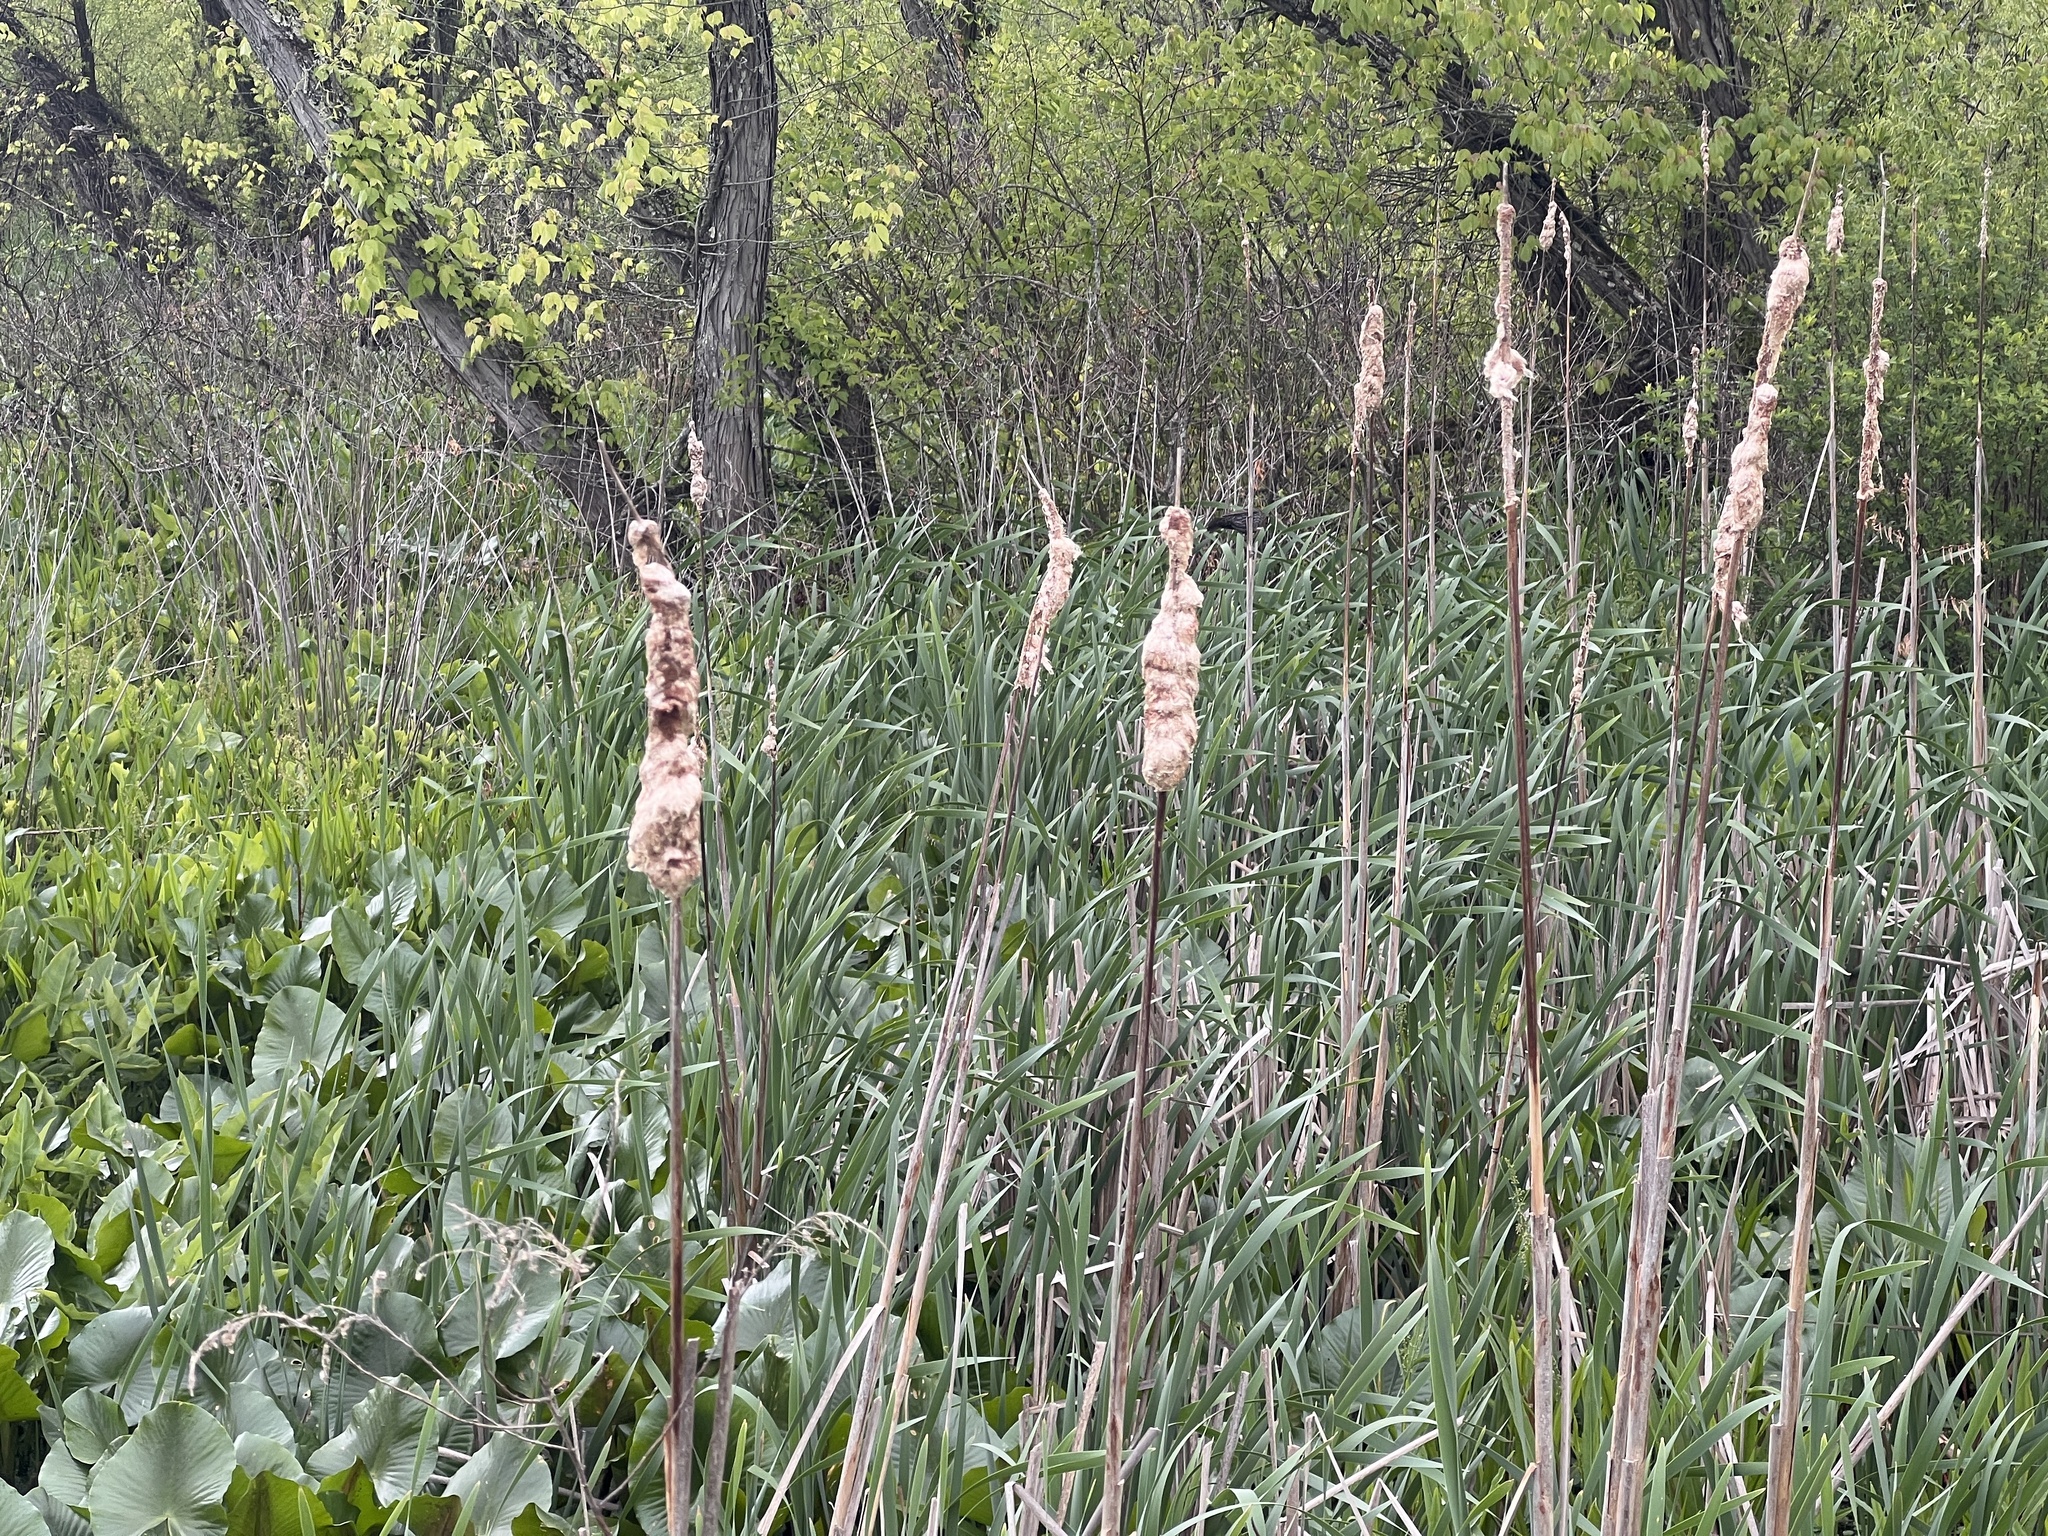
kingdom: Plantae
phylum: Tracheophyta
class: Liliopsida
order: Poales
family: Typhaceae
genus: Typha
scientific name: Typha latifolia
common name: Broadleaf cattail
